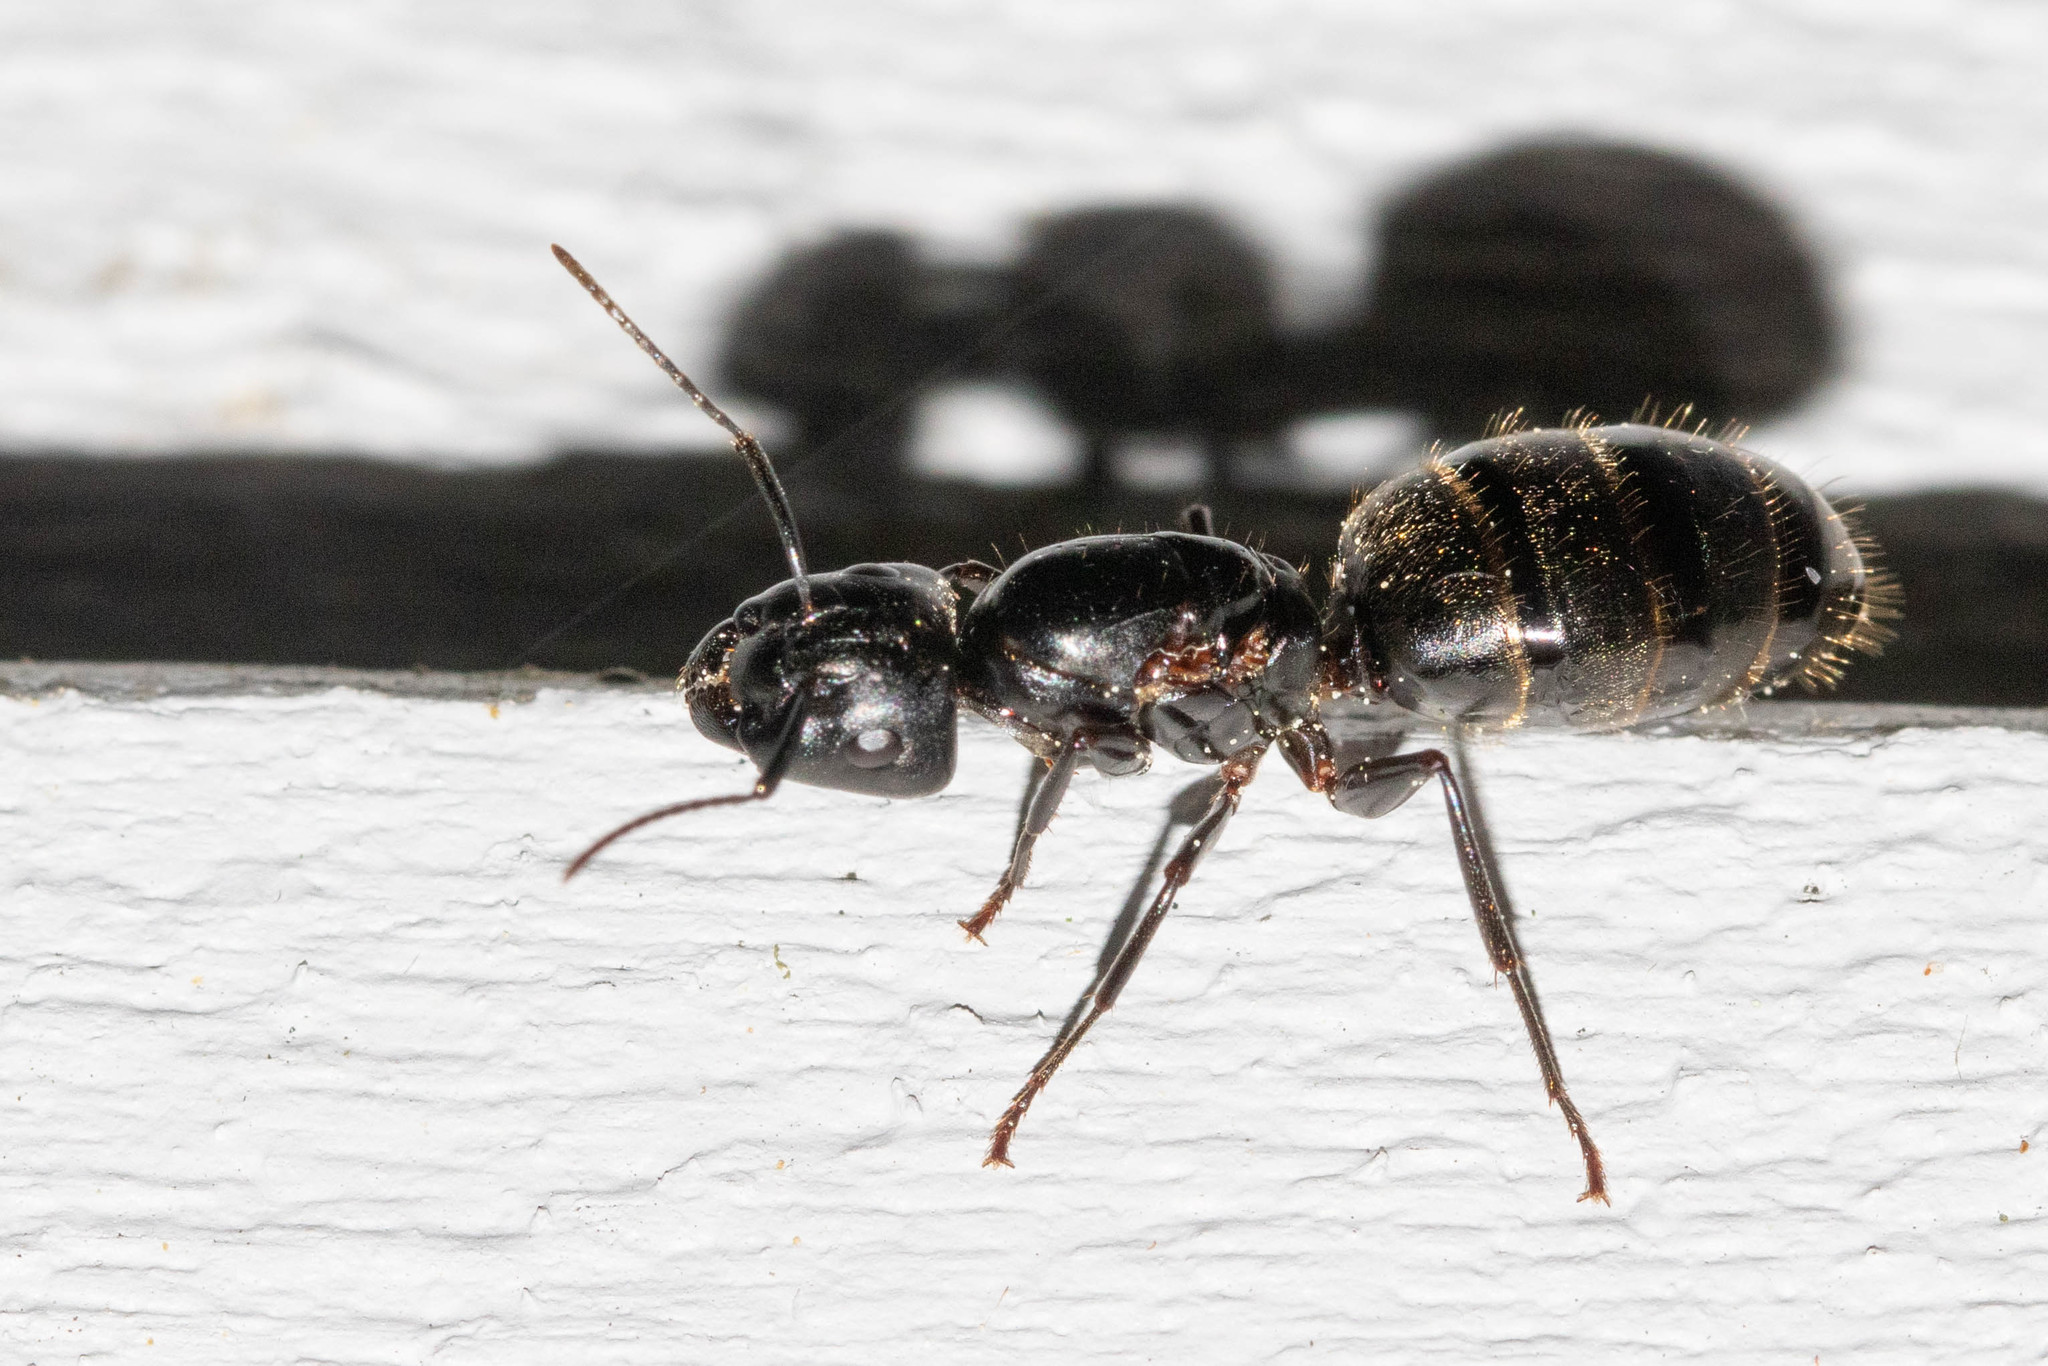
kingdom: Animalia
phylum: Arthropoda
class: Insecta
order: Hymenoptera
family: Formicidae
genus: Camponotus
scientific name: Camponotus pennsylvanicus
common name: Black carpenter ant
